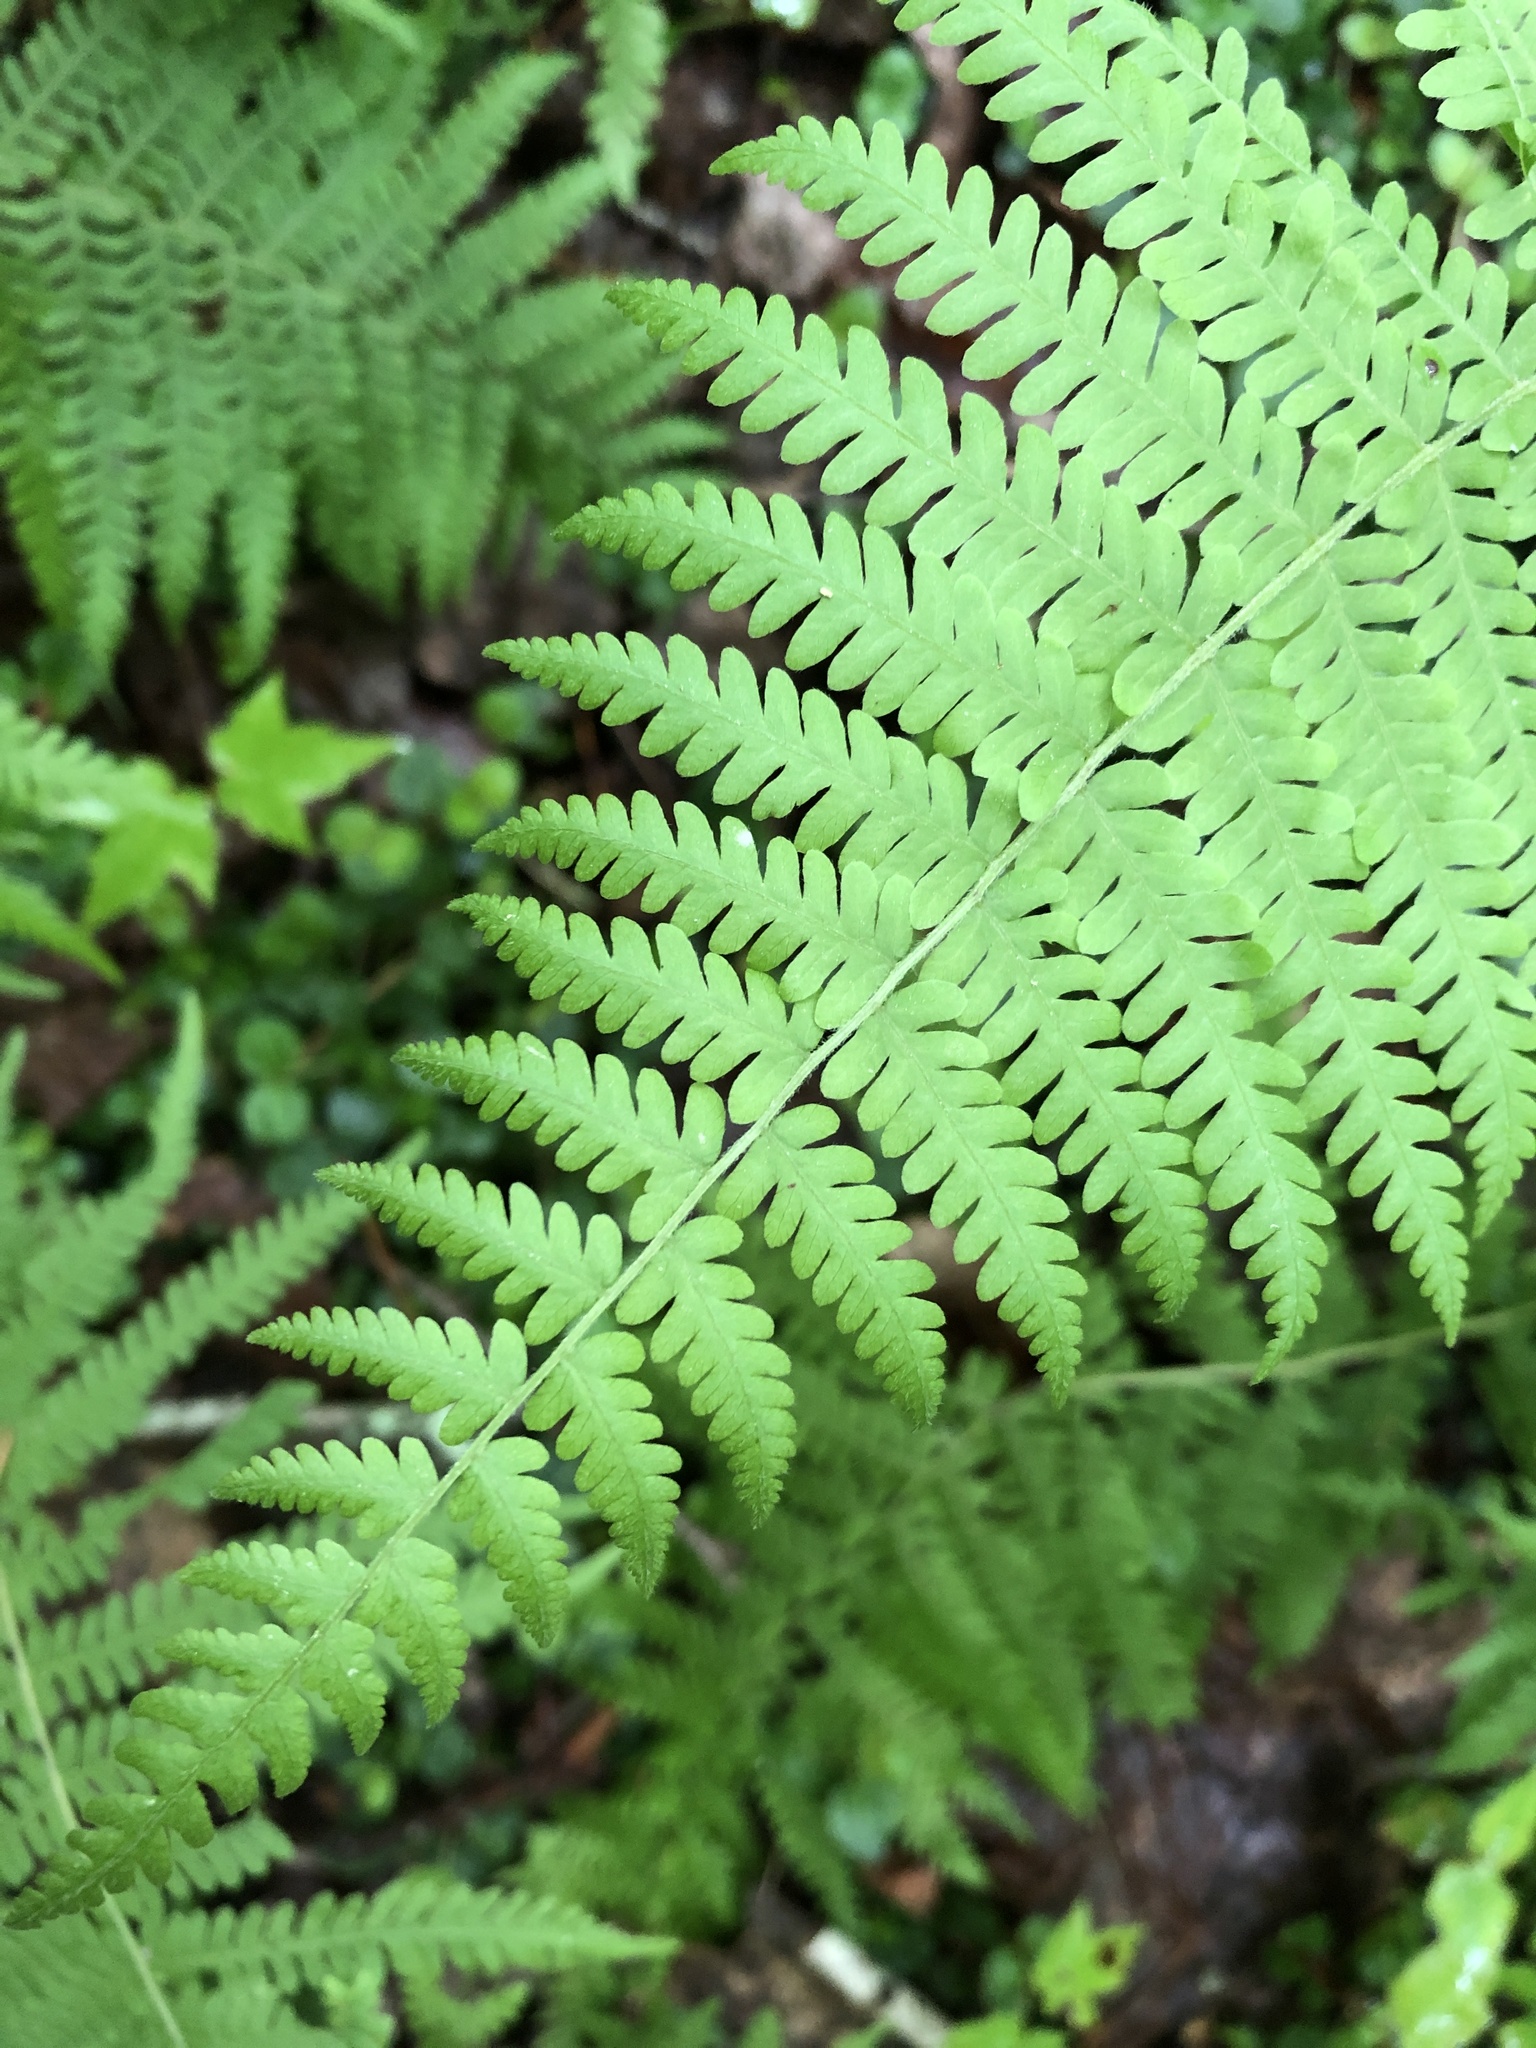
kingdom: Plantae
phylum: Tracheophyta
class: Polypodiopsida
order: Polypodiales
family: Thelypteridaceae
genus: Amauropelta
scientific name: Amauropelta noveboracensis
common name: New york fern
